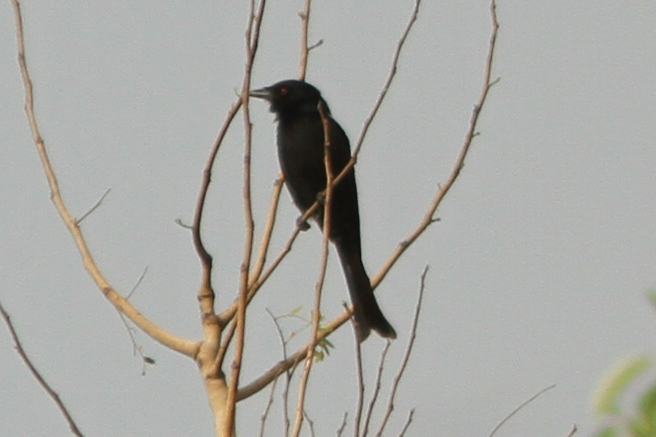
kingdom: Animalia
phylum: Chordata
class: Aves
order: Passeriformes
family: Dicruridae
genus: Dicrurus
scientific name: Dicrurus adsimilis
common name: Fork-tailed drongo
